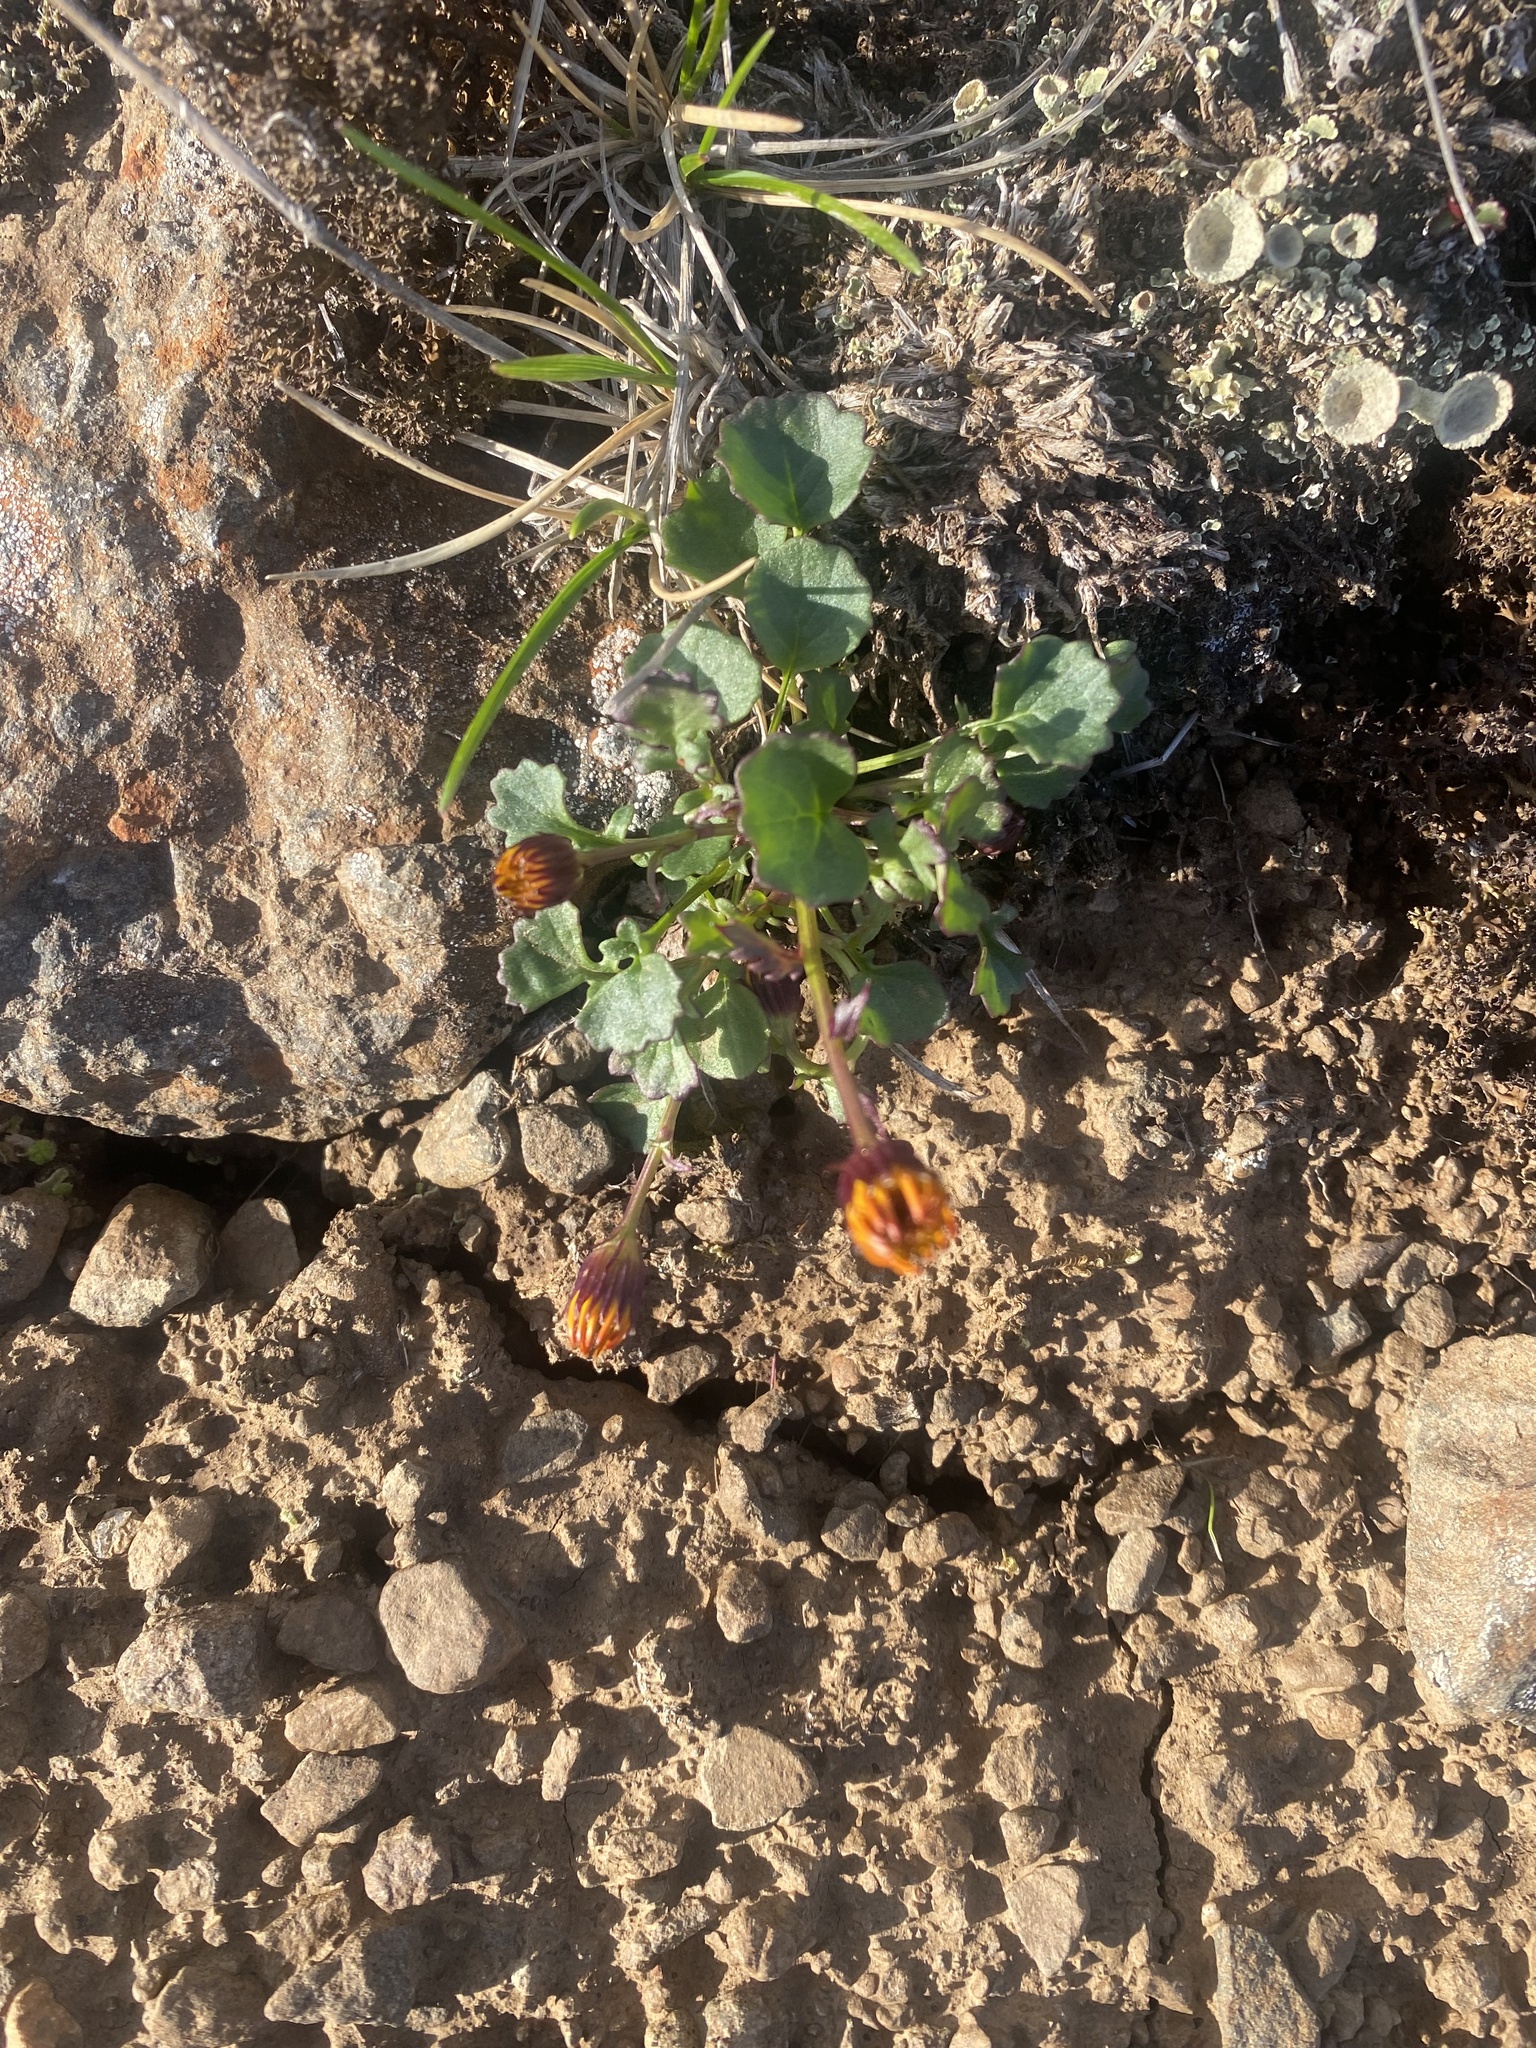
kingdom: Plantae
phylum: Tracheophyta
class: Magnoliopsida
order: Asterales
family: Asteraceae
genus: Packera
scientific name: Packera heterophylla
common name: Arctic butterweed
